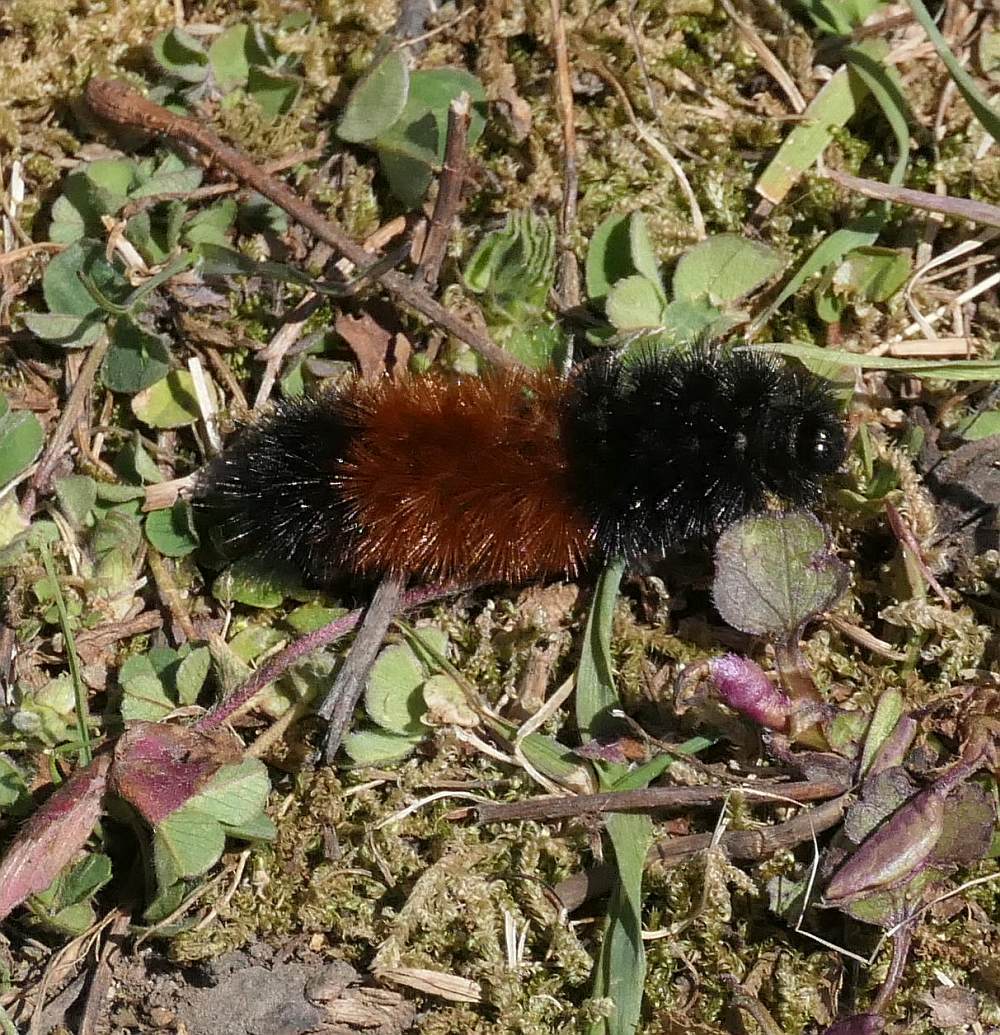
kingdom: Animalia
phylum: Arthropoda
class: Insecta
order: Lepidoptera
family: Erebidae
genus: Pyrrharctia
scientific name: Pyrrharctia isabella
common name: Isabella tiger moth
